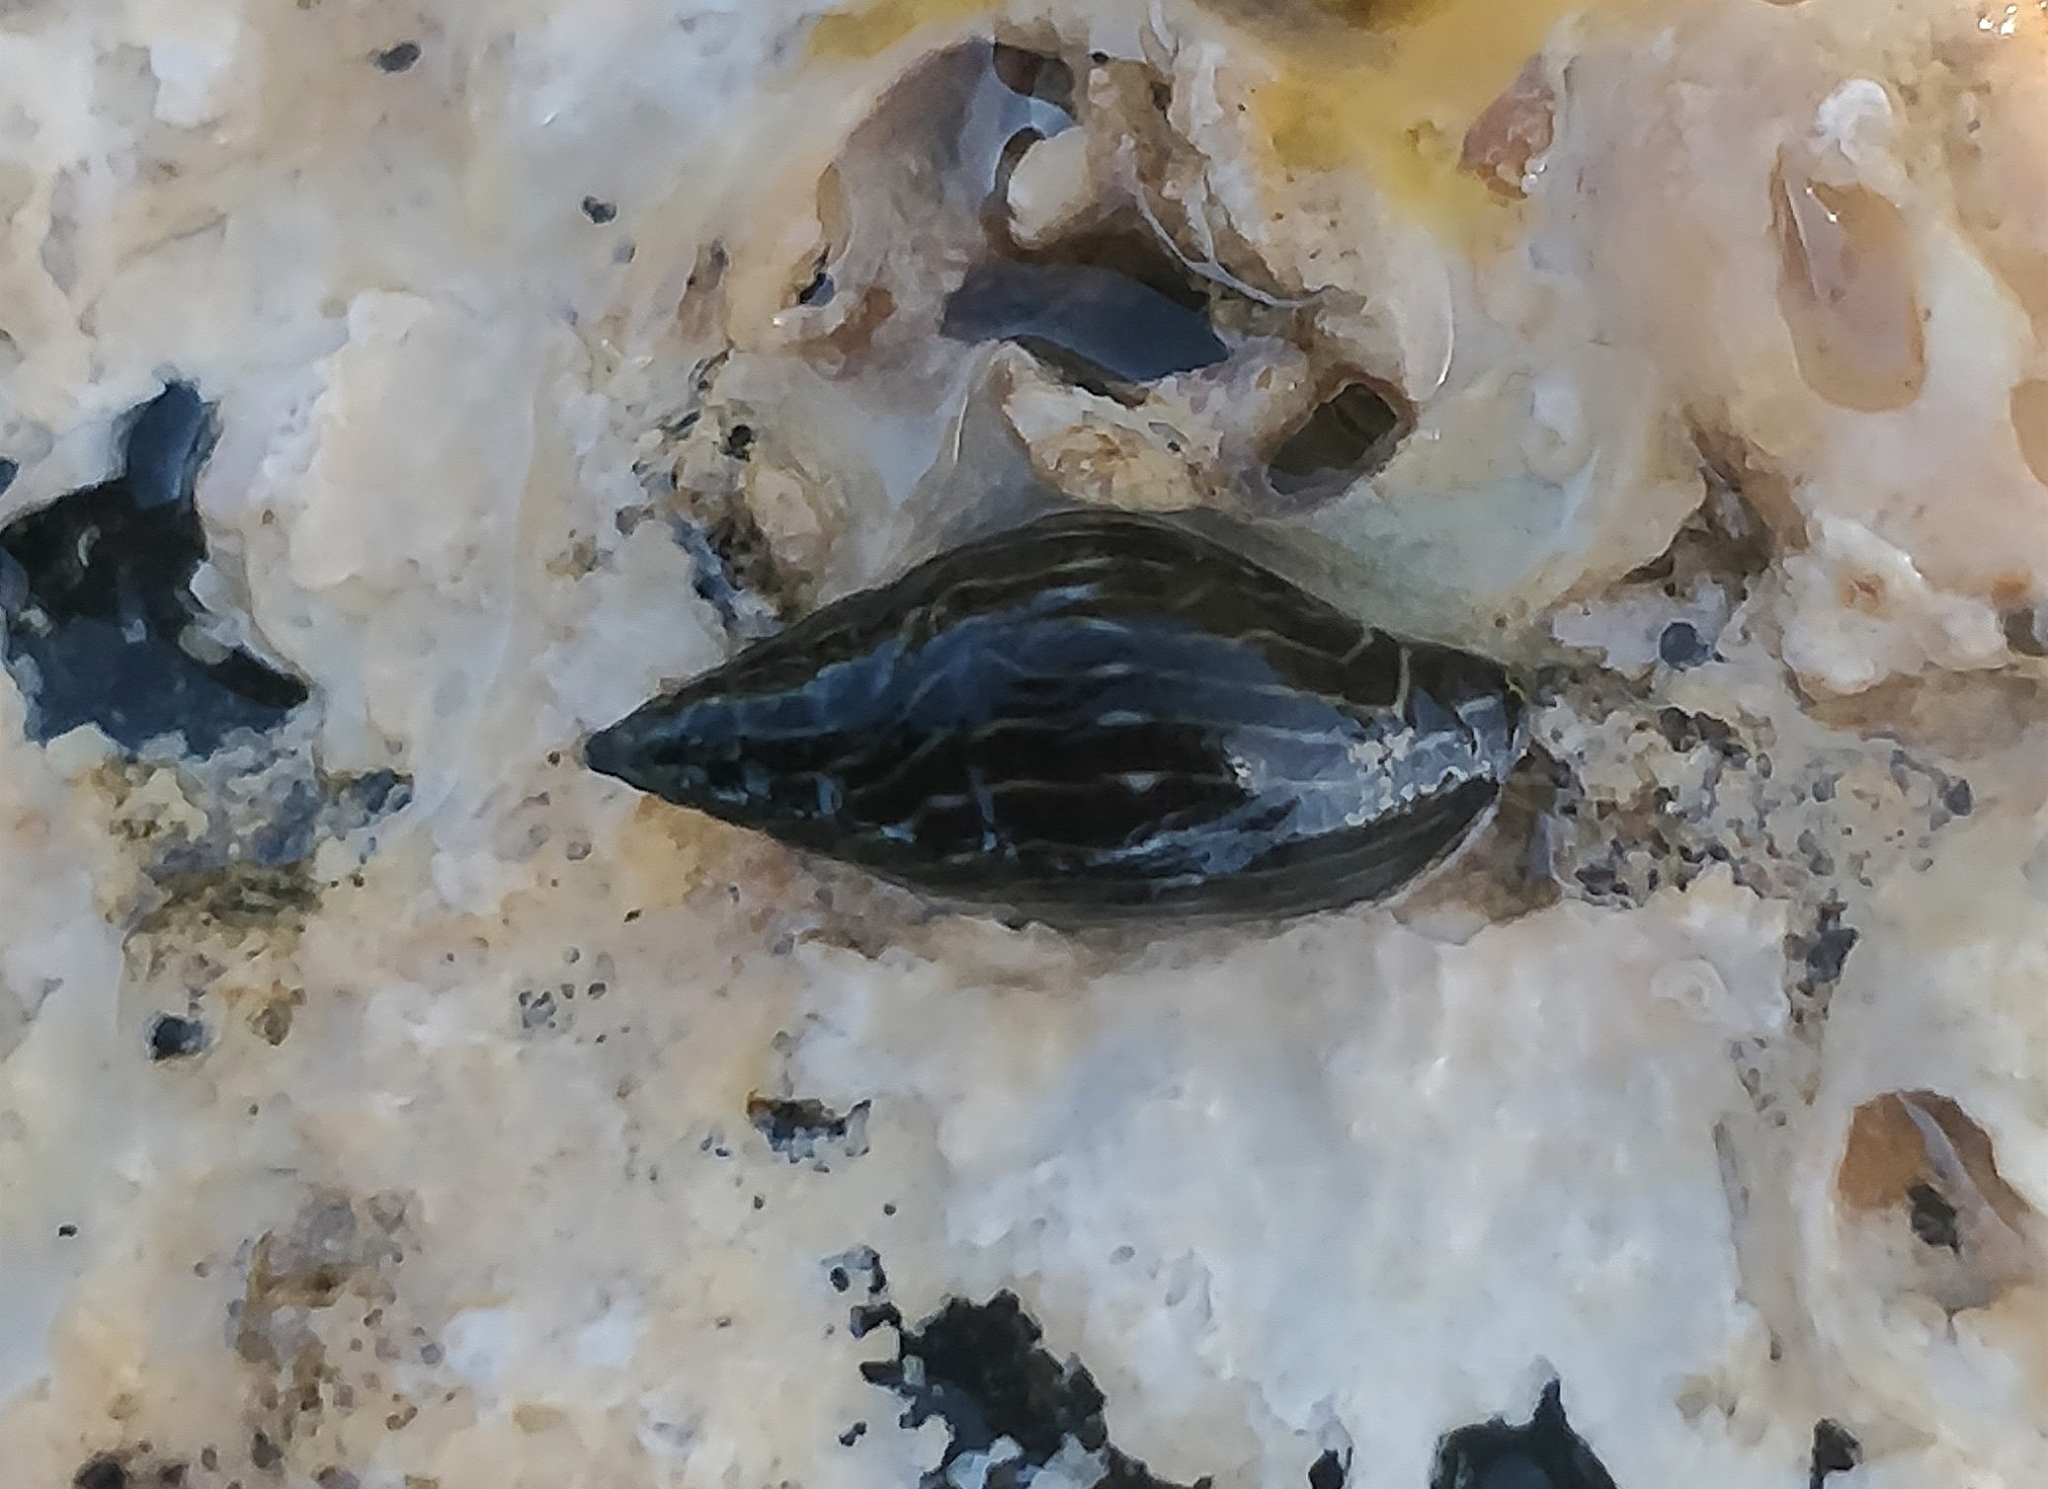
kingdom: Animalia
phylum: Mollusca
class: Gastropoda
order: Neogastropoda
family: Costellariidae
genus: Pusia
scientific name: Pusia zebrina
